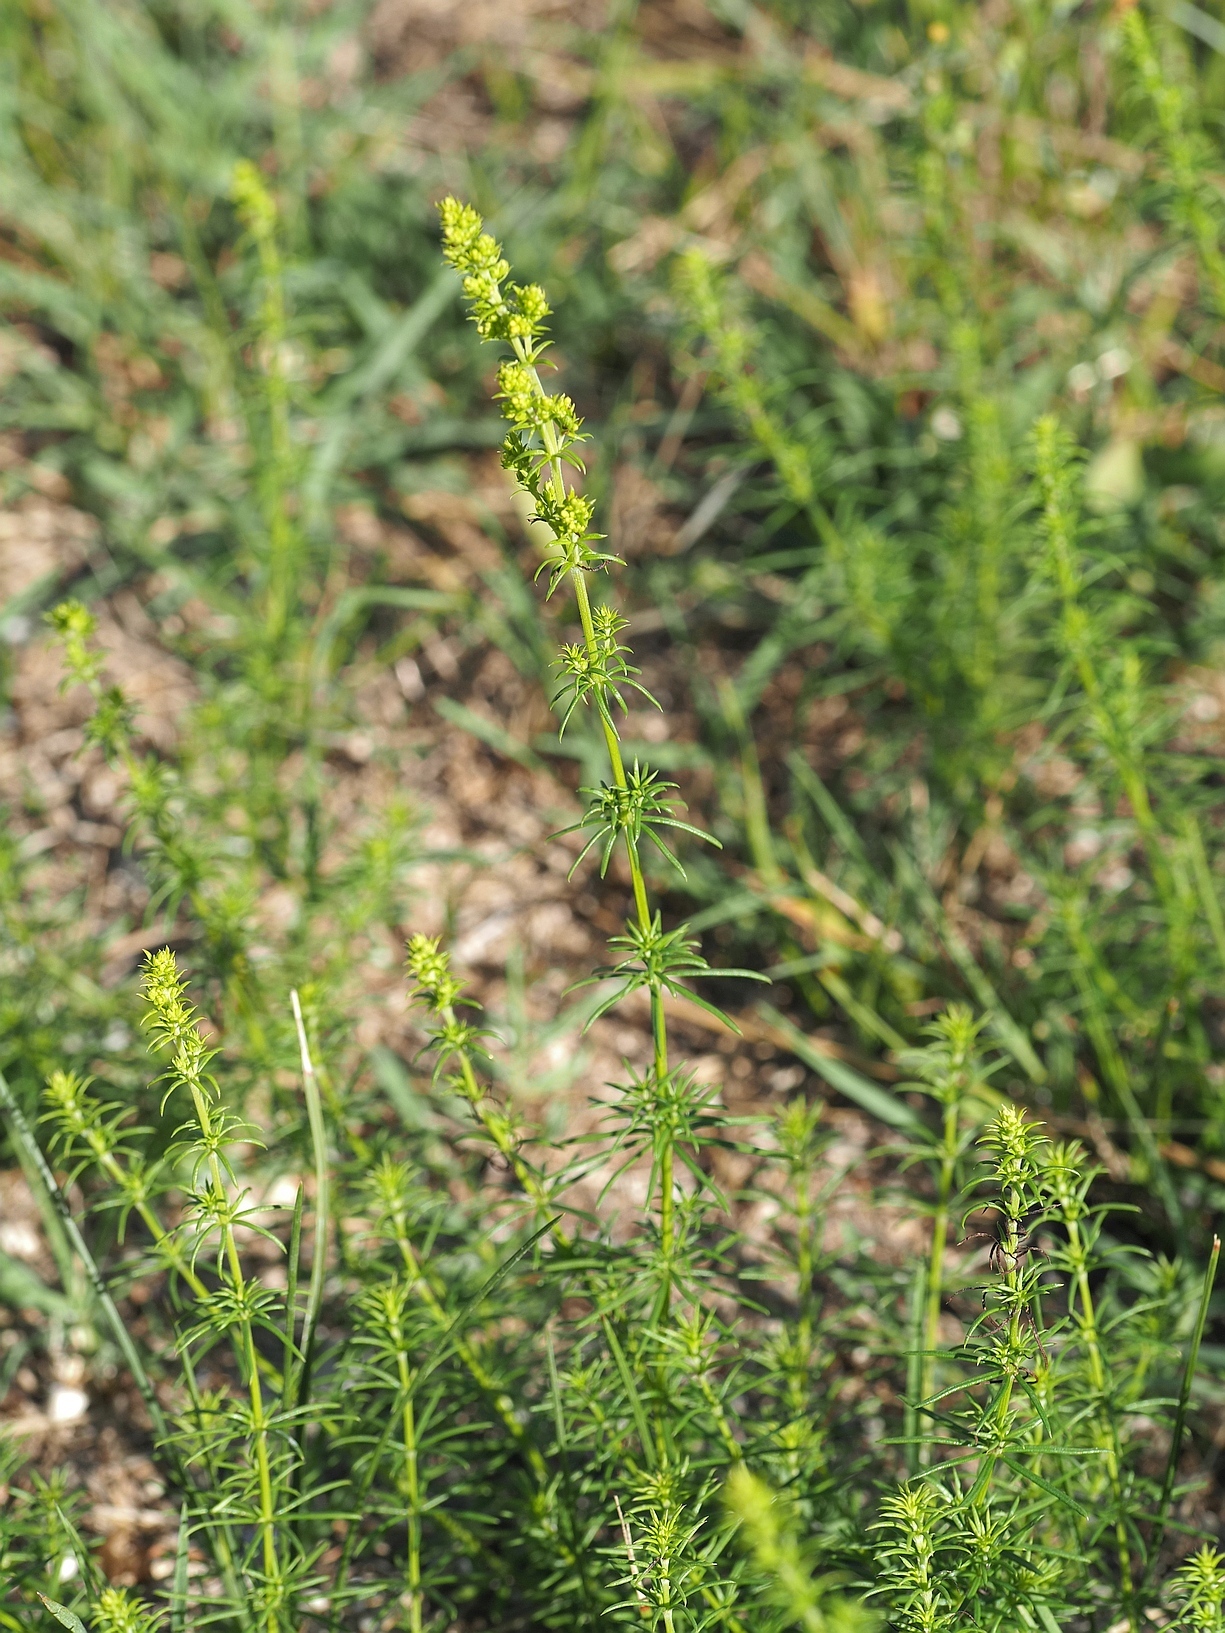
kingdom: Plantae
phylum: Tracheophyta
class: Magnoliopsida
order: Gentianales
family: Rubiaceae
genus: Galium
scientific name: Galium verum
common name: Lady's bedstraw
